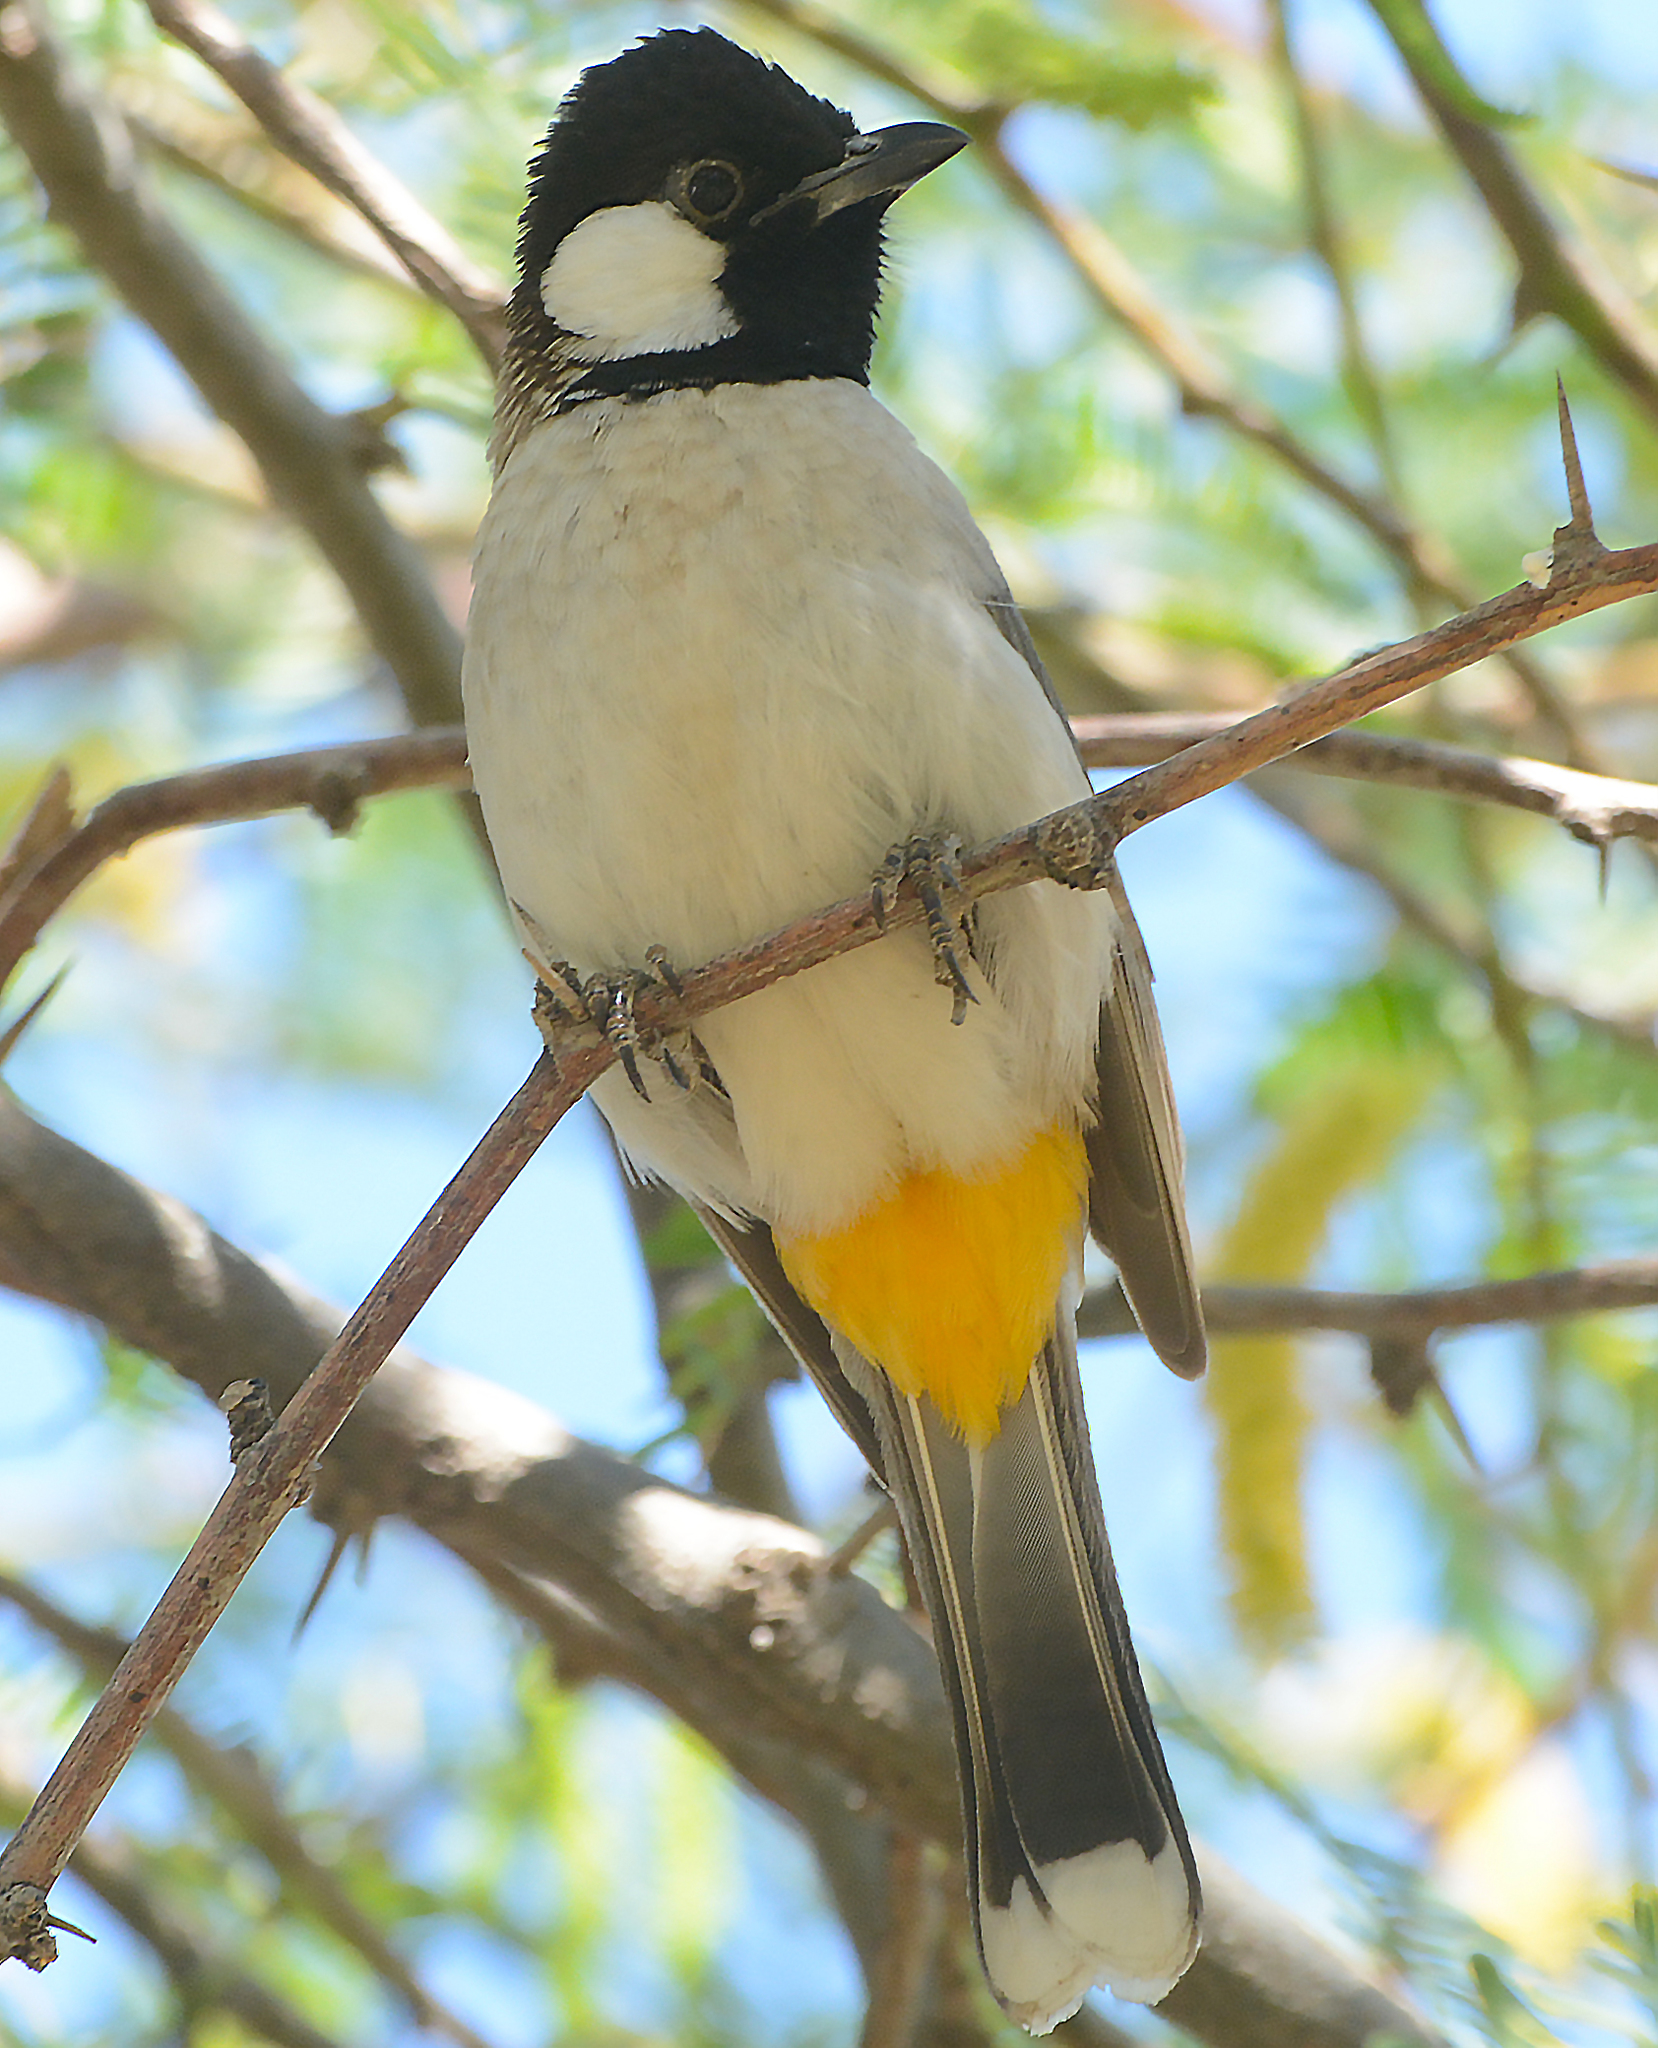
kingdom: Animalia
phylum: Chordata
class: Aves
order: Passeriformes
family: Pycnonotidae
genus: Pycnonotus
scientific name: Pycnonotus leucotis
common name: White-eared bulbul
